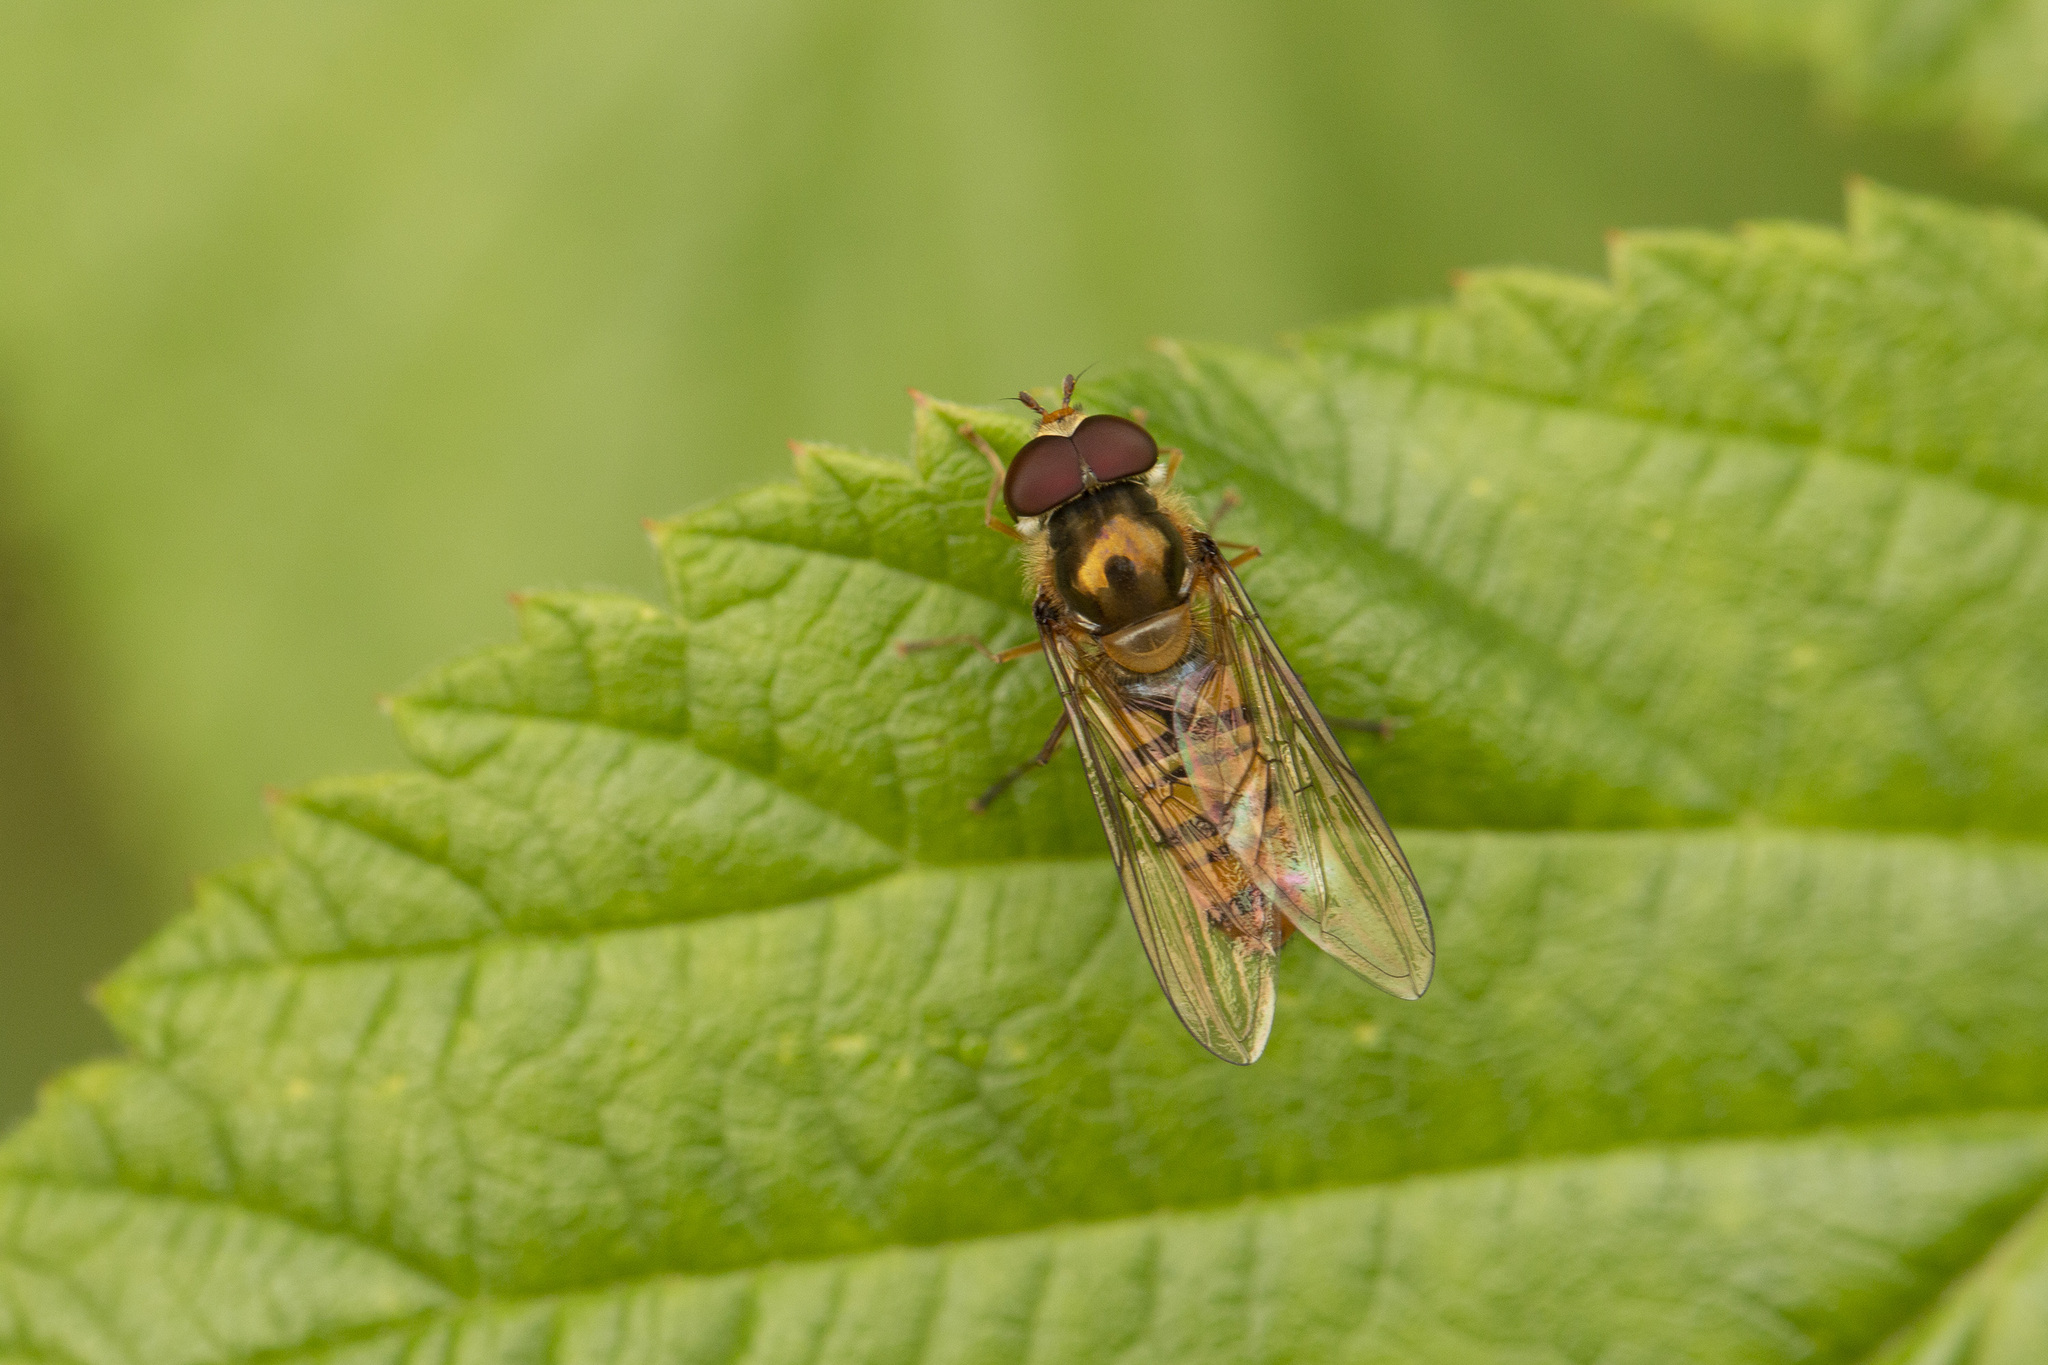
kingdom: Animalia
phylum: Arthropoda
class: Insecta
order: Diptera
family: Syrphidae
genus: Episyrphus
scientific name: Episyrphus balteatus
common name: Marmalade hoverfly
